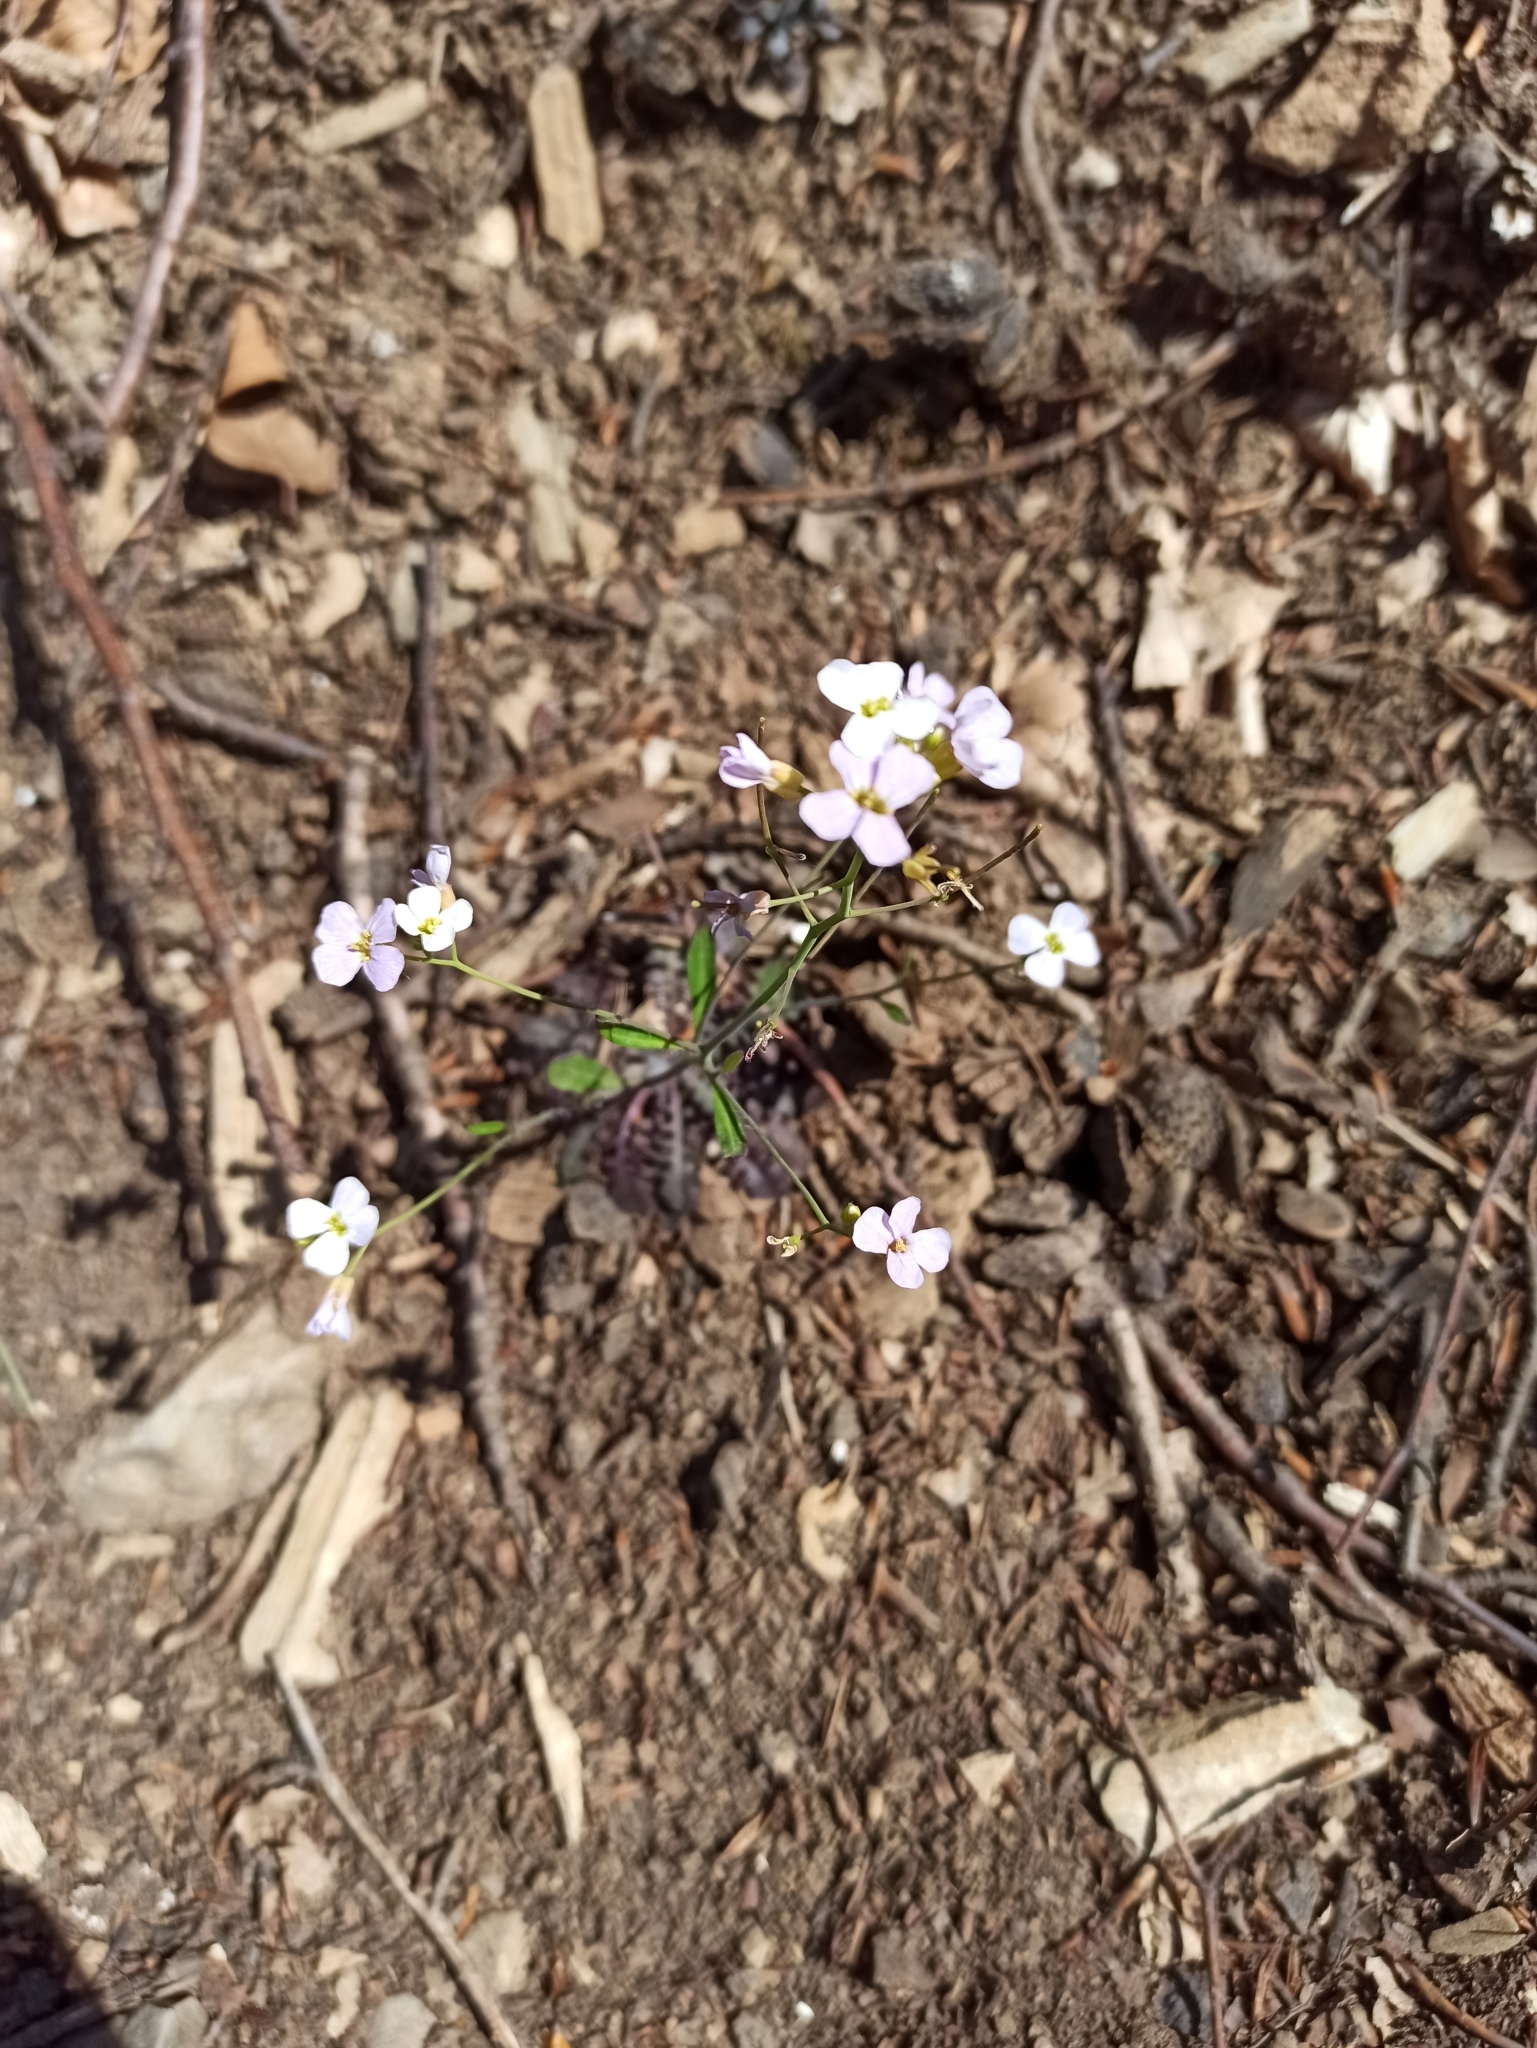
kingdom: Plantae
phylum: Tracheophyta
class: Magnoliopsida
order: Brassicales
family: Brassicaceae
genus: Arabidopsis
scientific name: Arabidopsis arenosa
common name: Sand rock-cress
